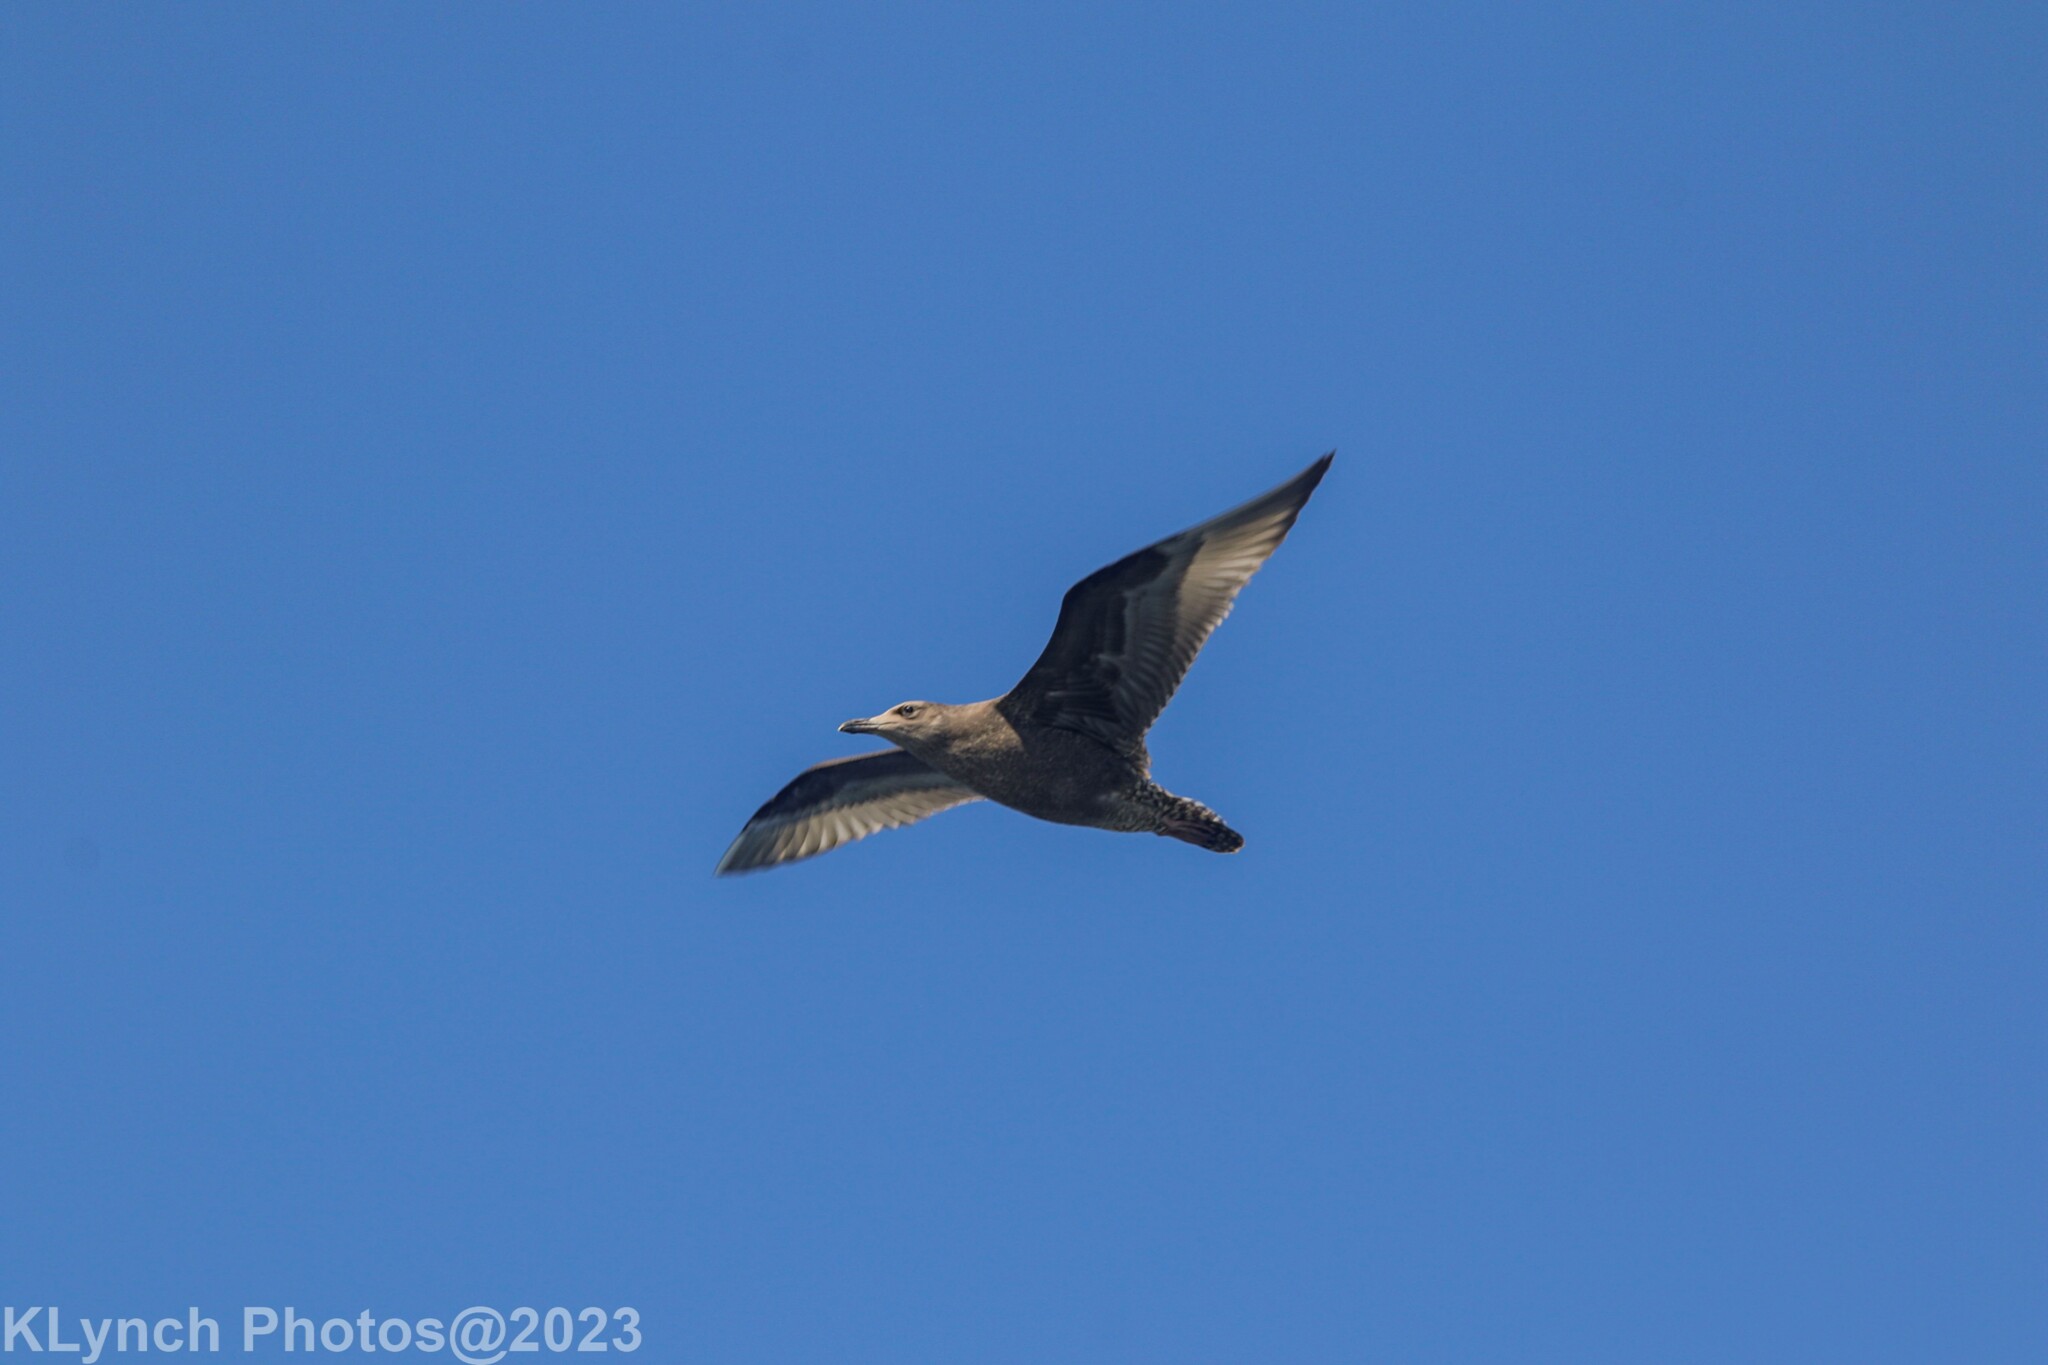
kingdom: Animalia
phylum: Chordata
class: Aves
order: Charadriiformes
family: Laridae
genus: Larus
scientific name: Larus argentatus
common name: Herring gull
